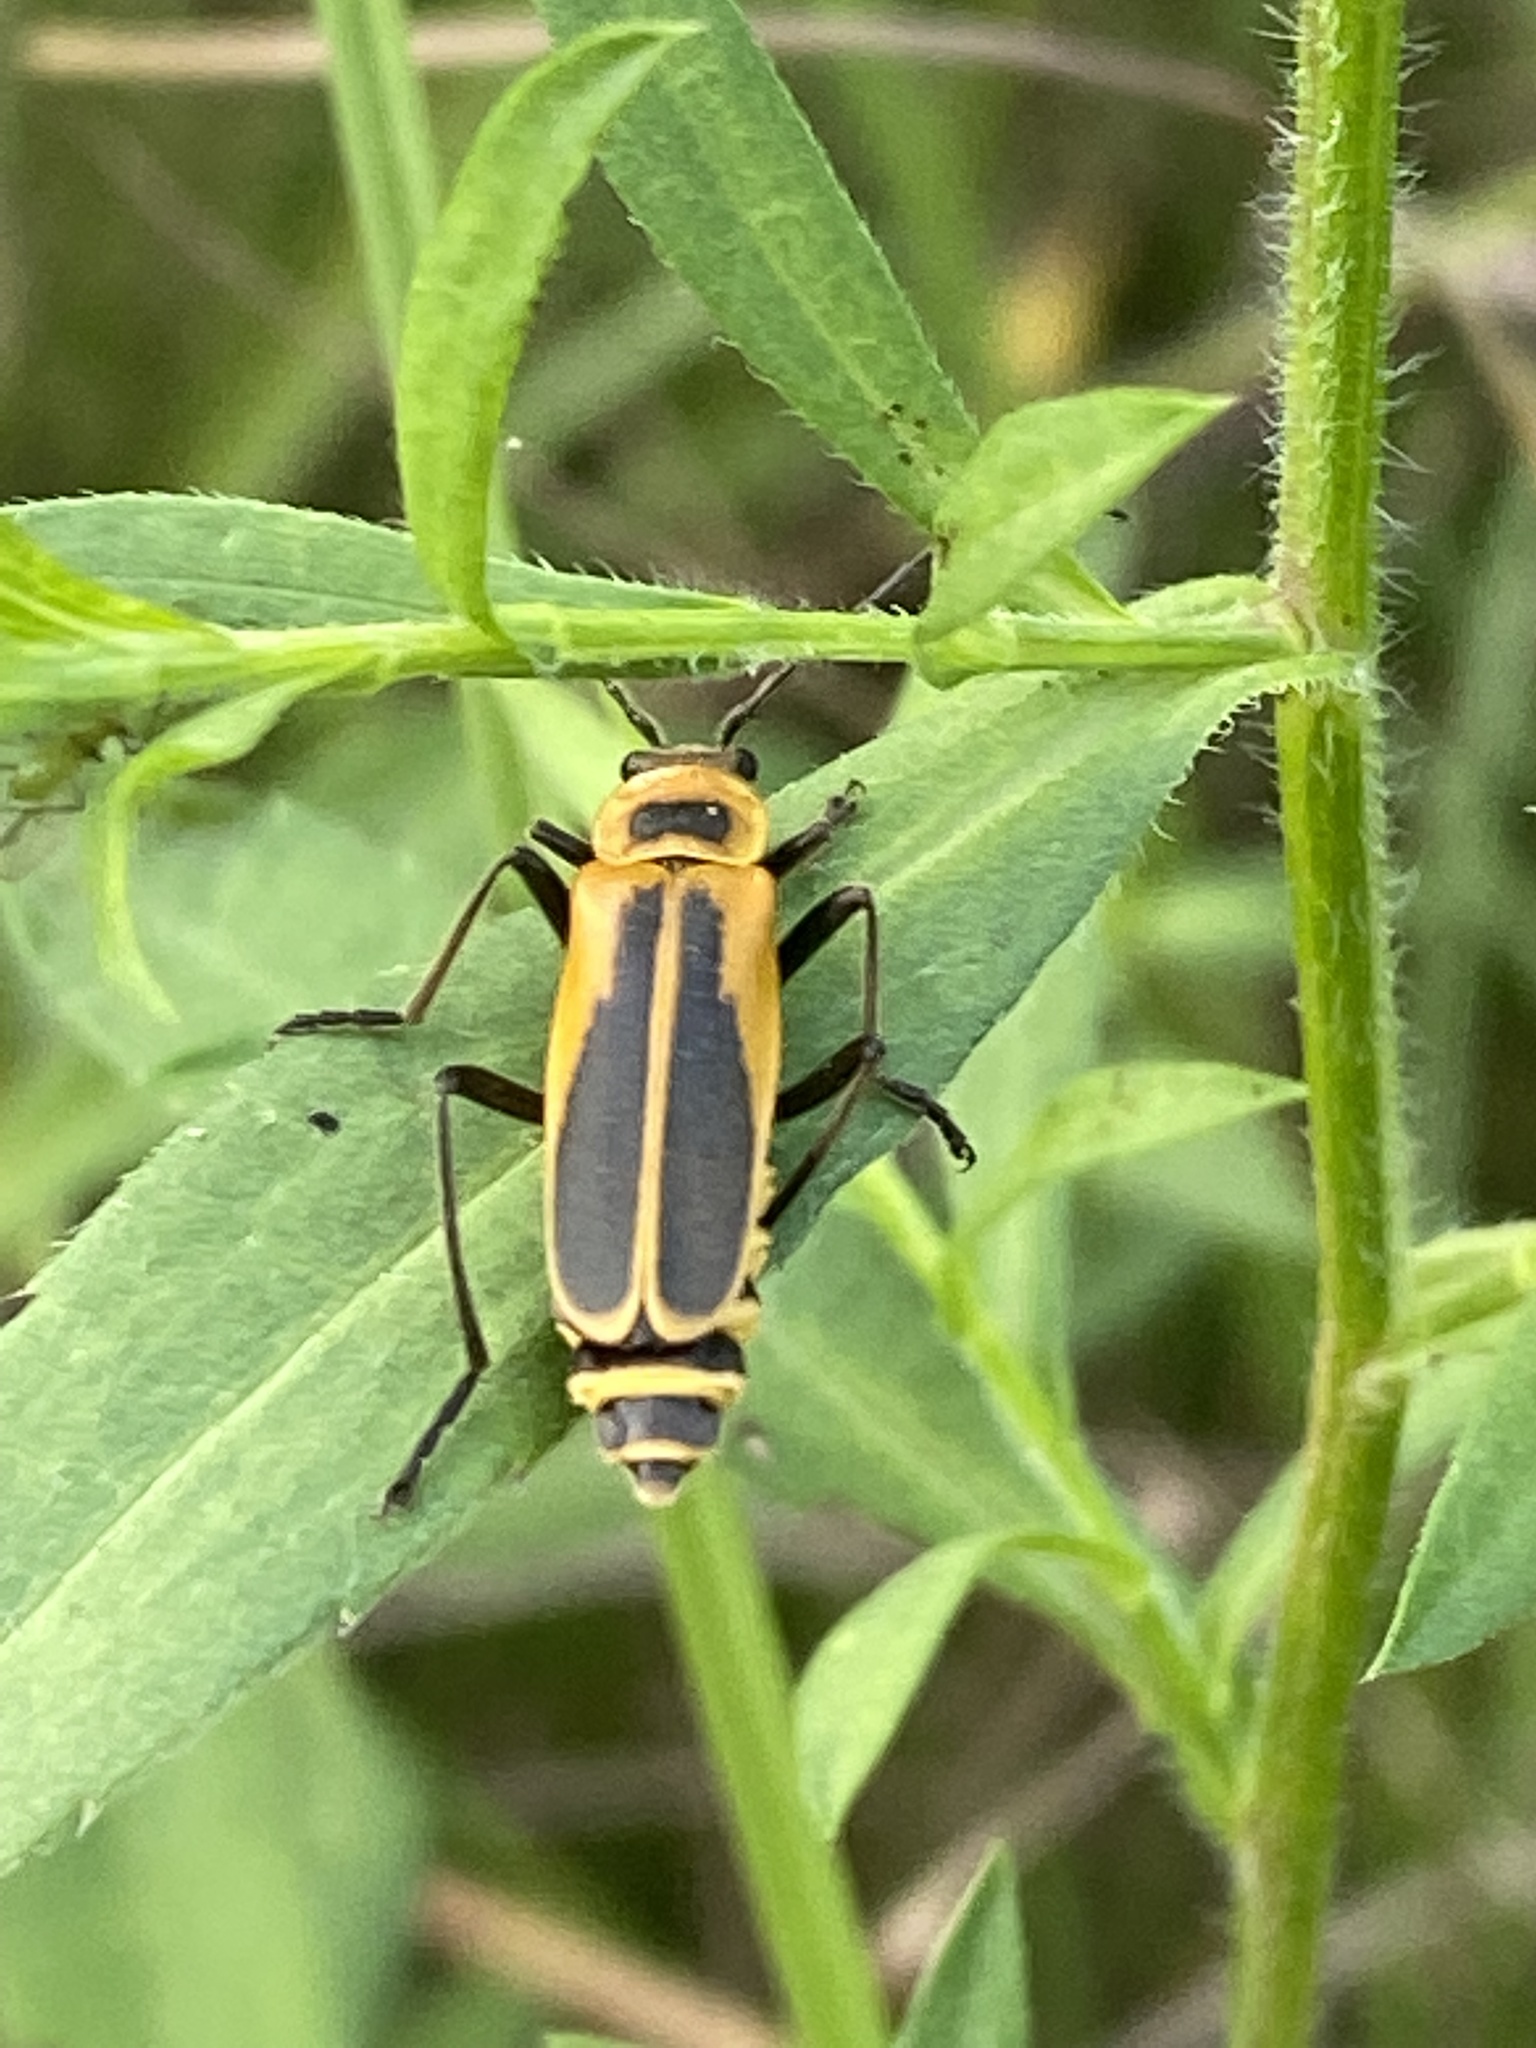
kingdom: Animalia
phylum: Arthropoda
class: Insecta
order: Coleoptera
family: Cantharidae
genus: Chauliognathus
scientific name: Chauliognathus pensylvanicus
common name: Goldenrod soldier beetle
